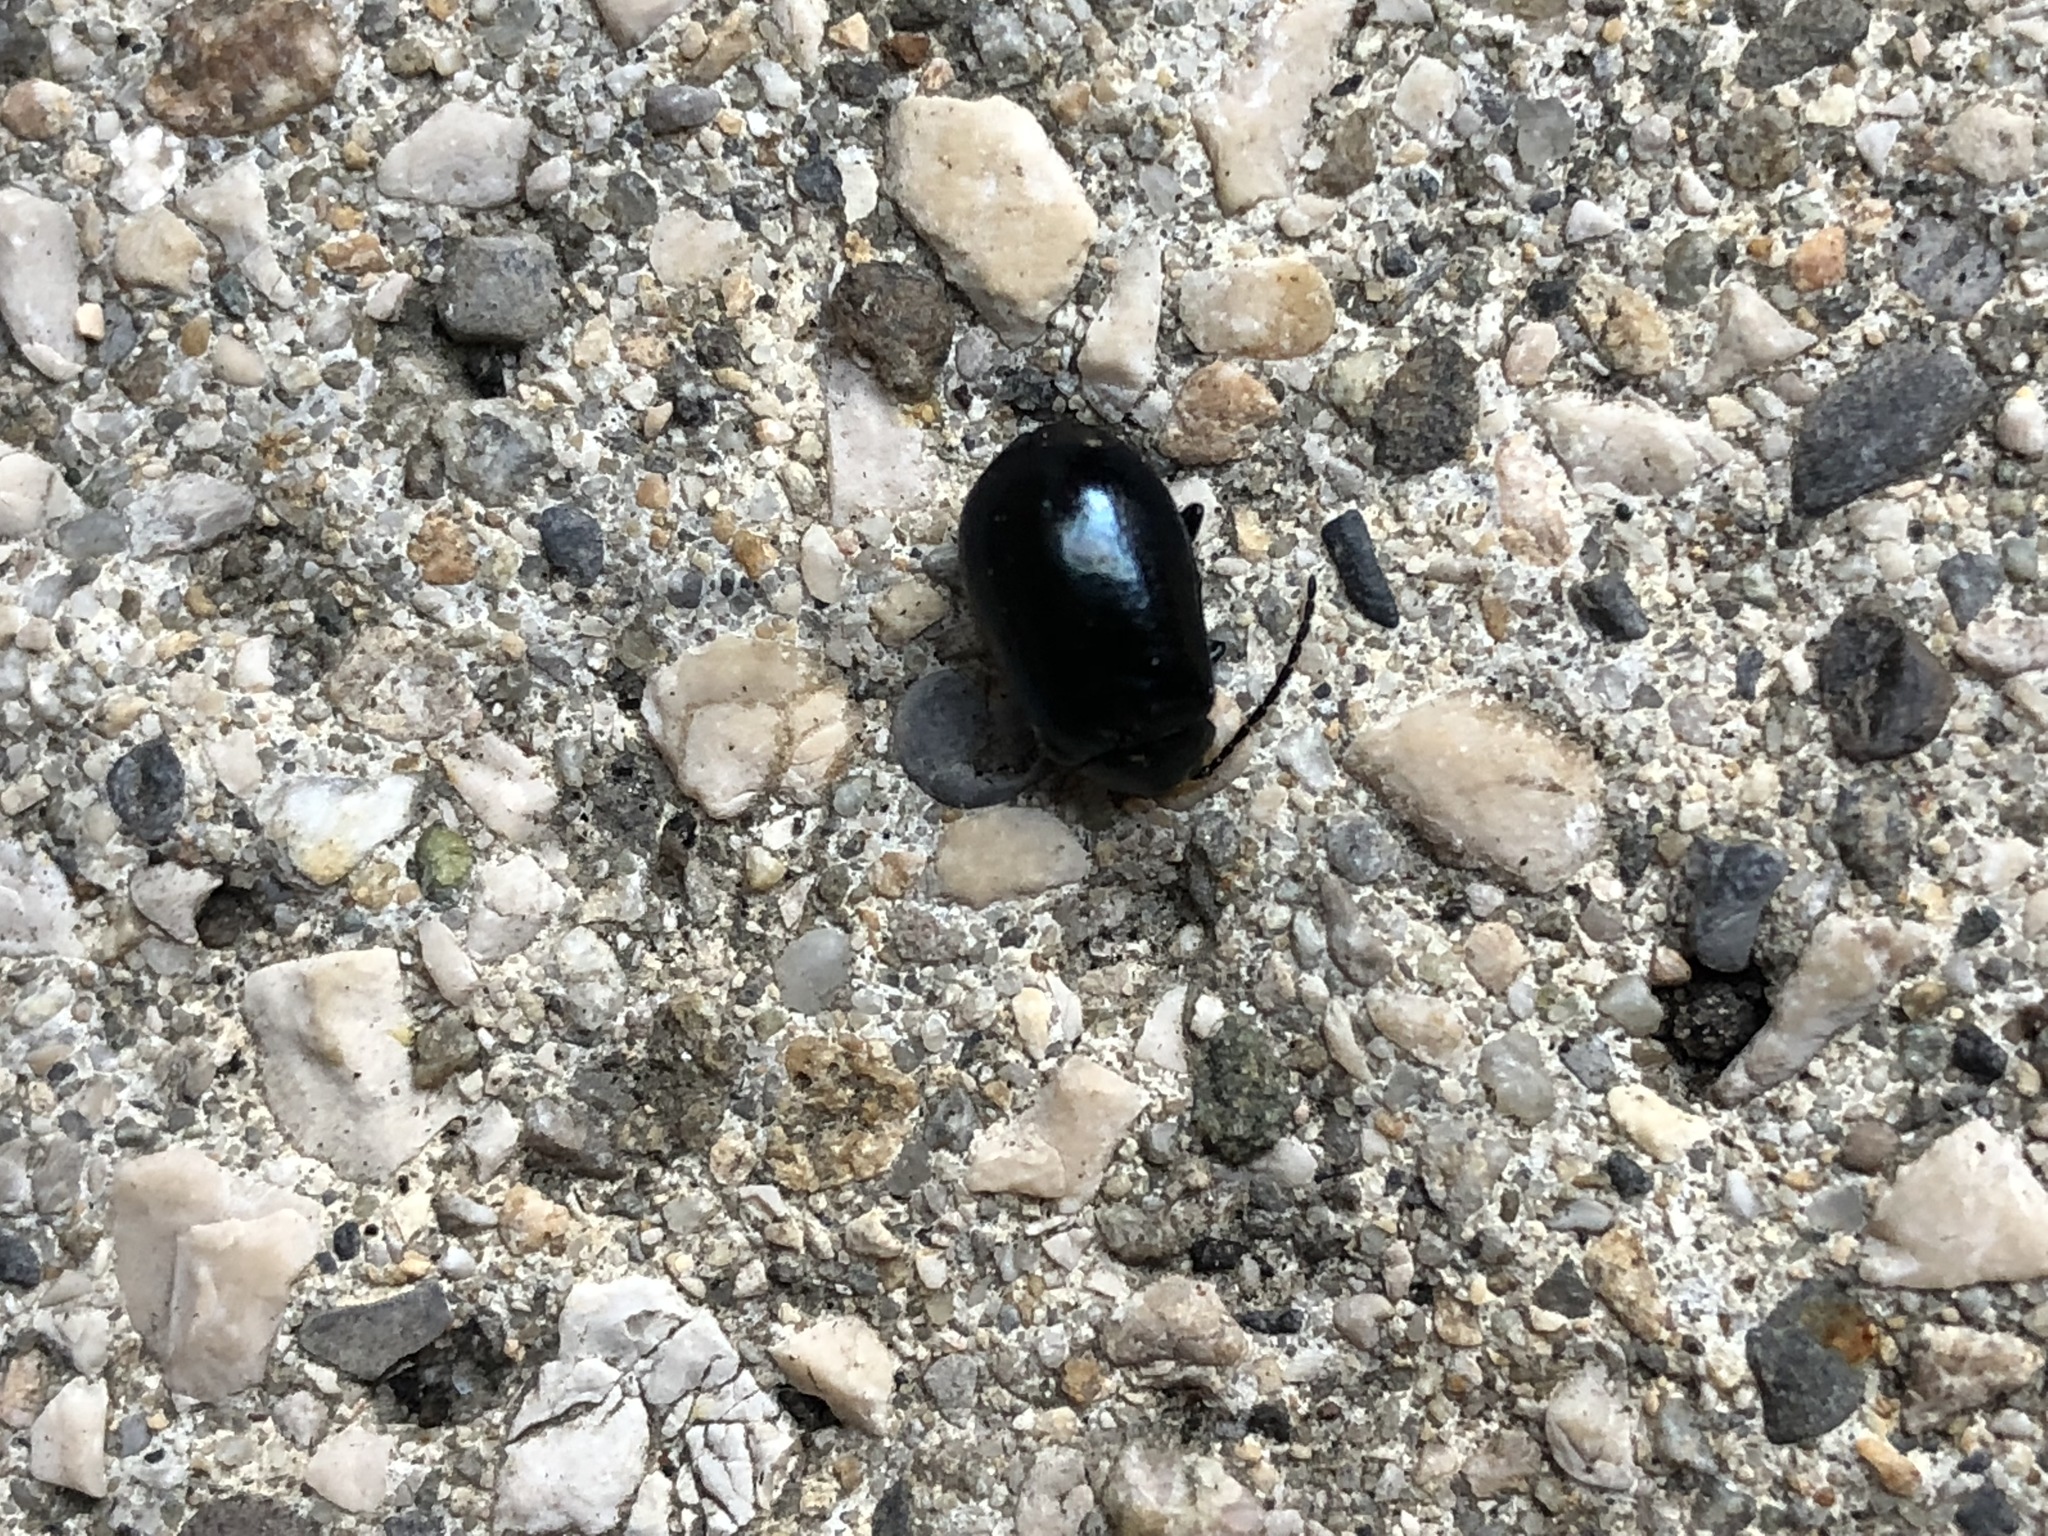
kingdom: Animalia
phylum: Arthropoda
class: Insecta
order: Coleoptera
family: Chrysomelidae
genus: Agelastica
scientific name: Agelastica alni
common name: Alder leaf beetle
